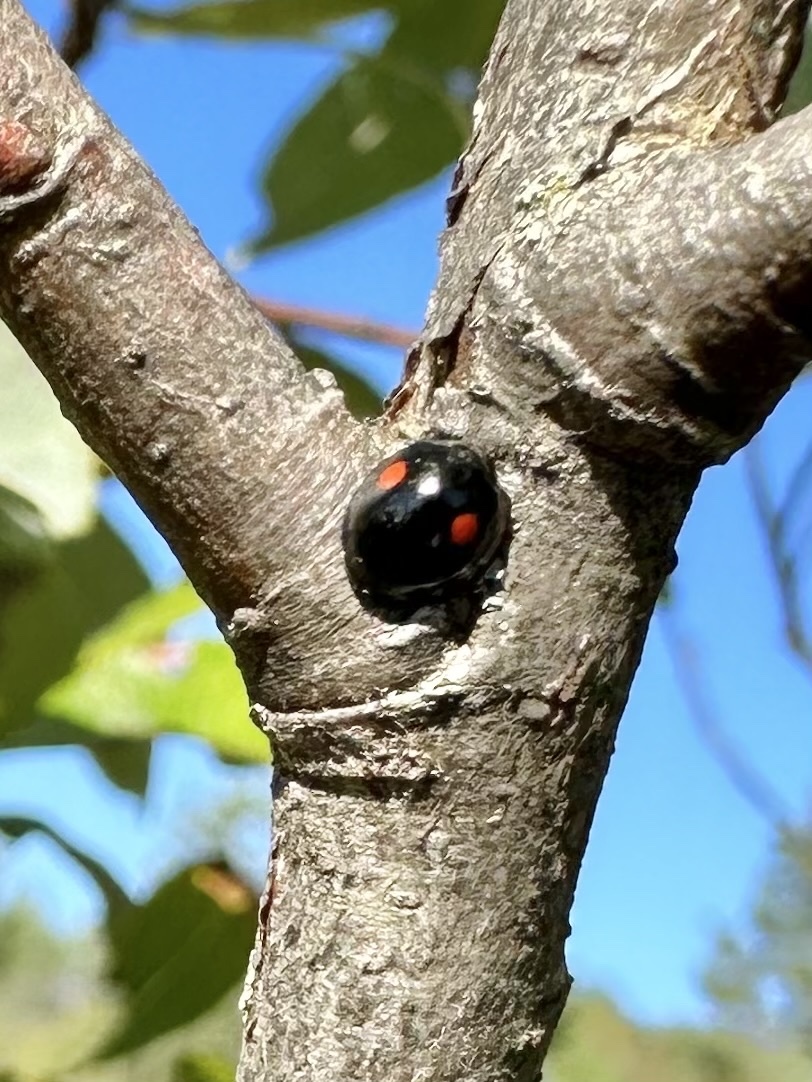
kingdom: Animalia
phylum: Arthropoda
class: Insecta
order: Coleoptera
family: Coccinellidae
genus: Chilocorus
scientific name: Chilocorus stigma
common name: Twicestabbed lady beetle
